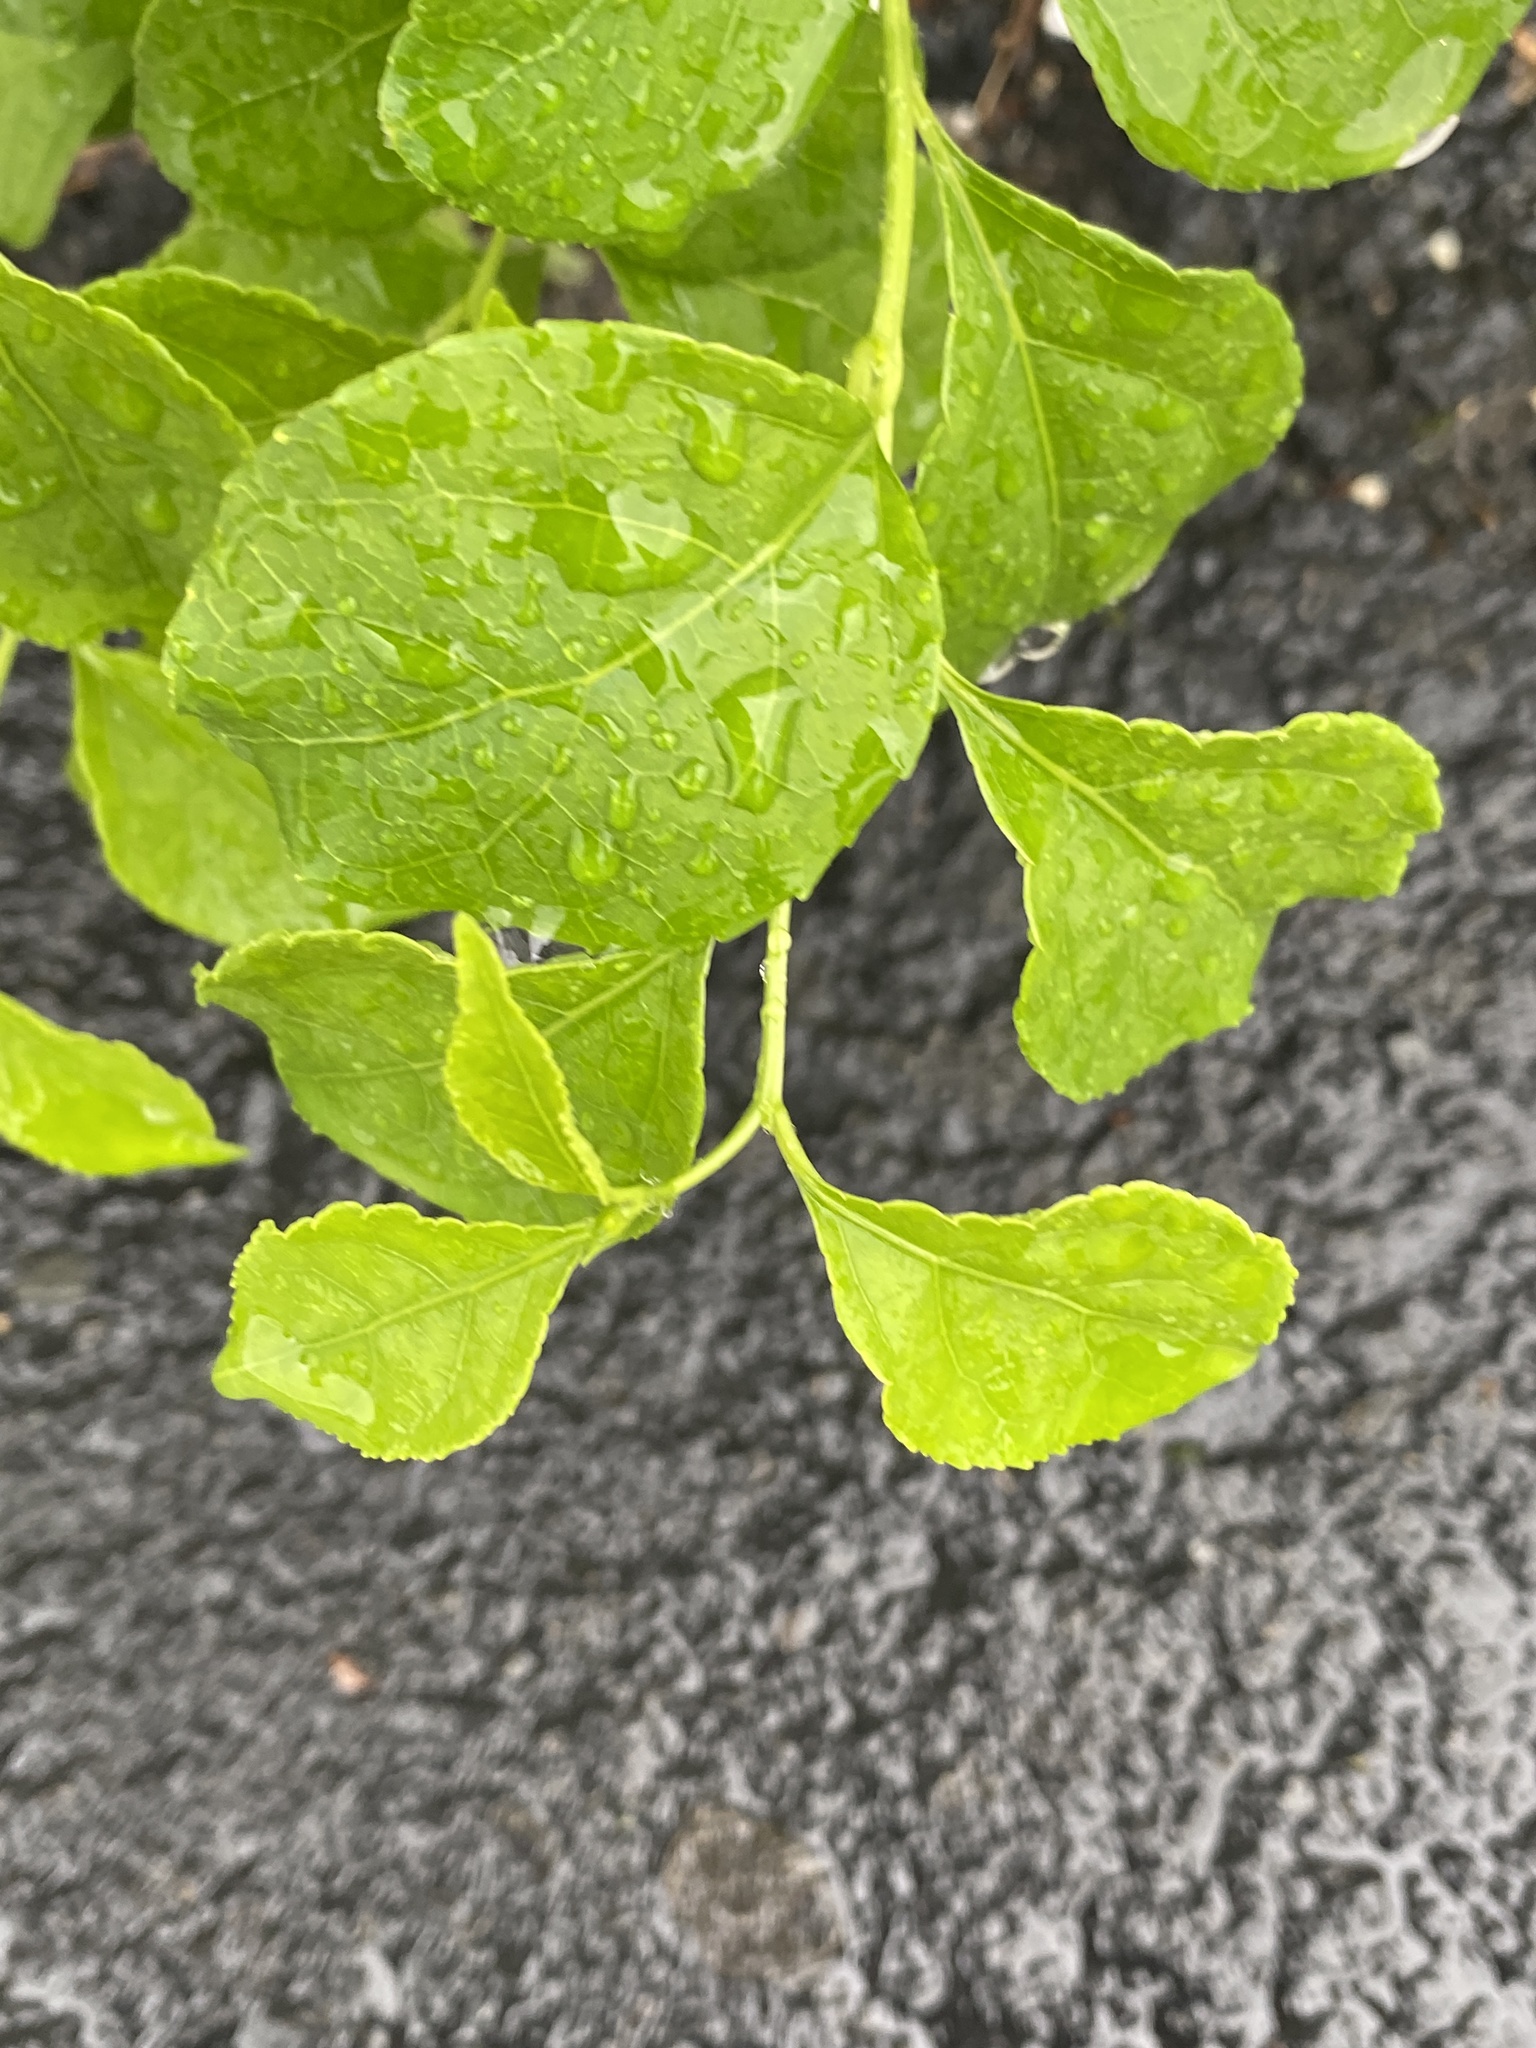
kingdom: Plantae
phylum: Tracheophyta
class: Magnoliopsida
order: Celastrales
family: Celastraceae
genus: Celastrus
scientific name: Celastrus orbiculatus
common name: Oriental bittersweet
